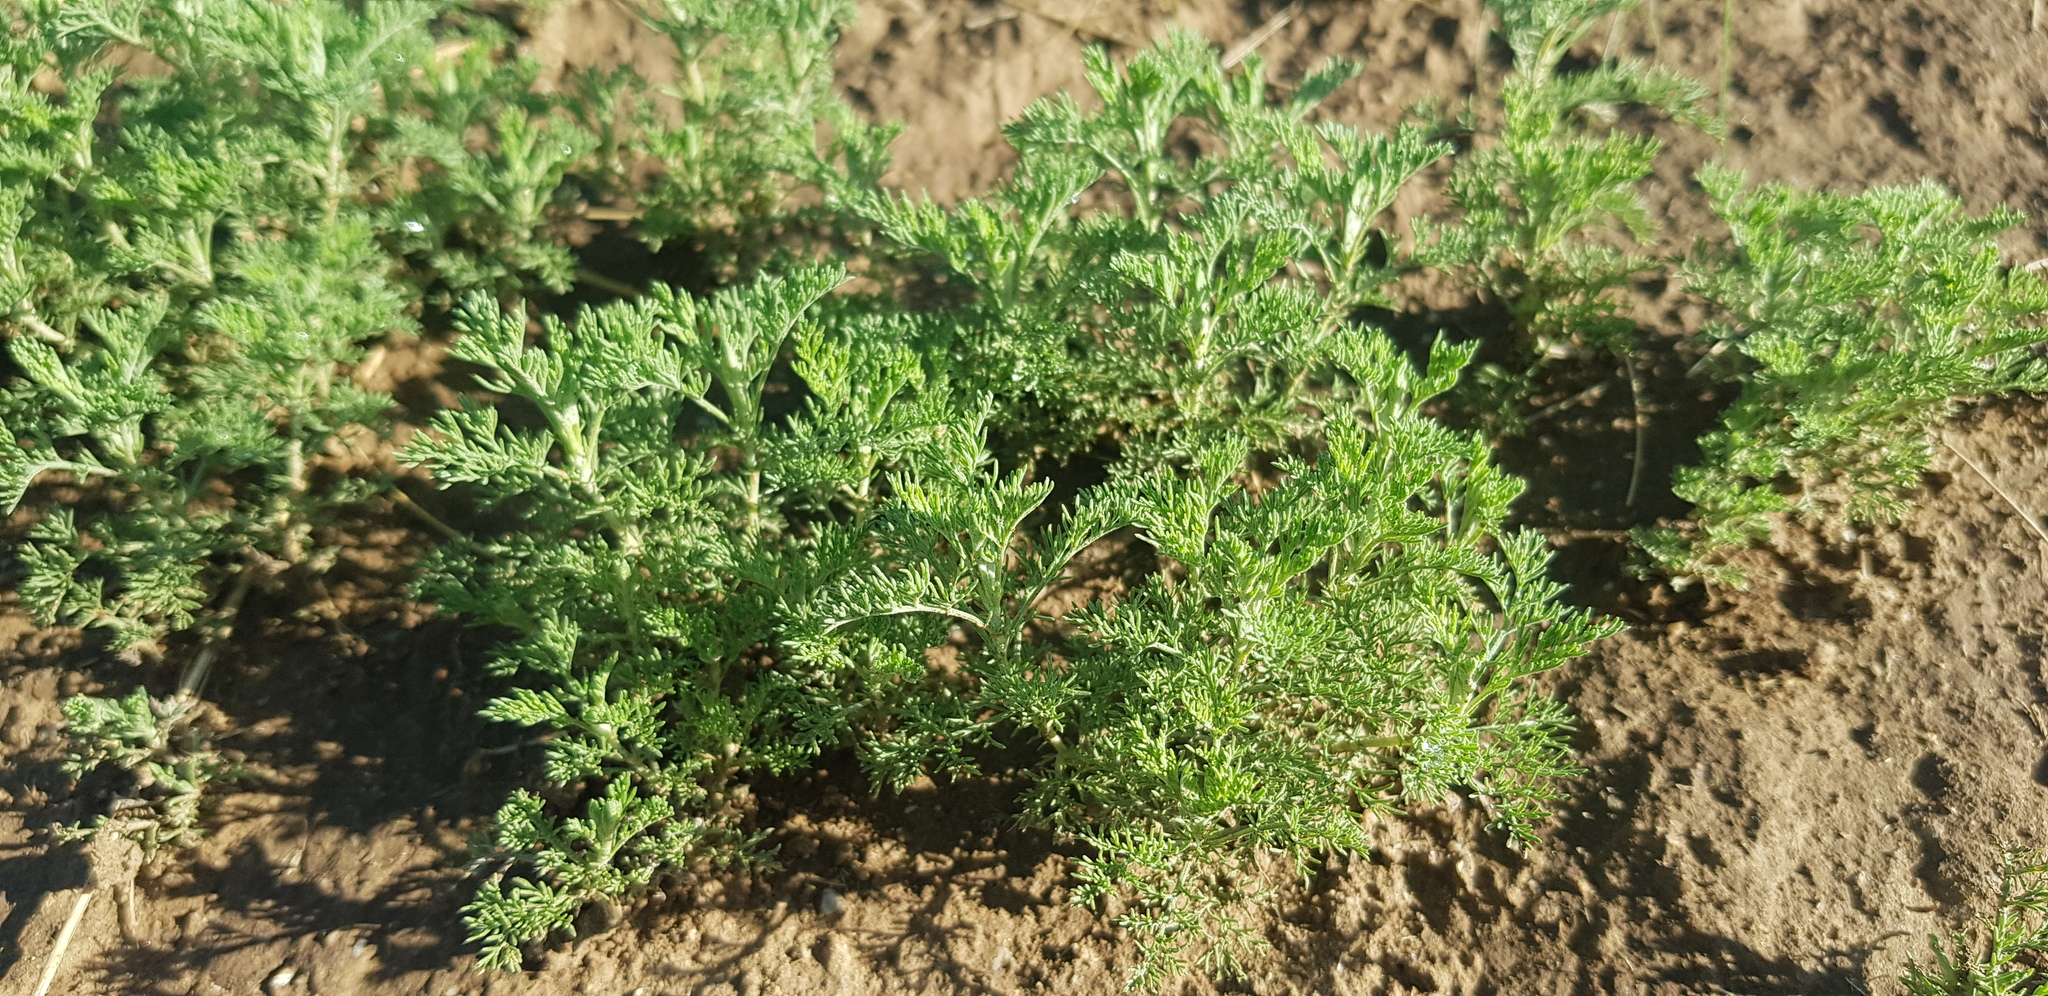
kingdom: Plantae
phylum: Tracheophyta
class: Magnoliopsida
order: Asterales
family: Asteraceae
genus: Artemisia
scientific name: Artemisia adamsii
